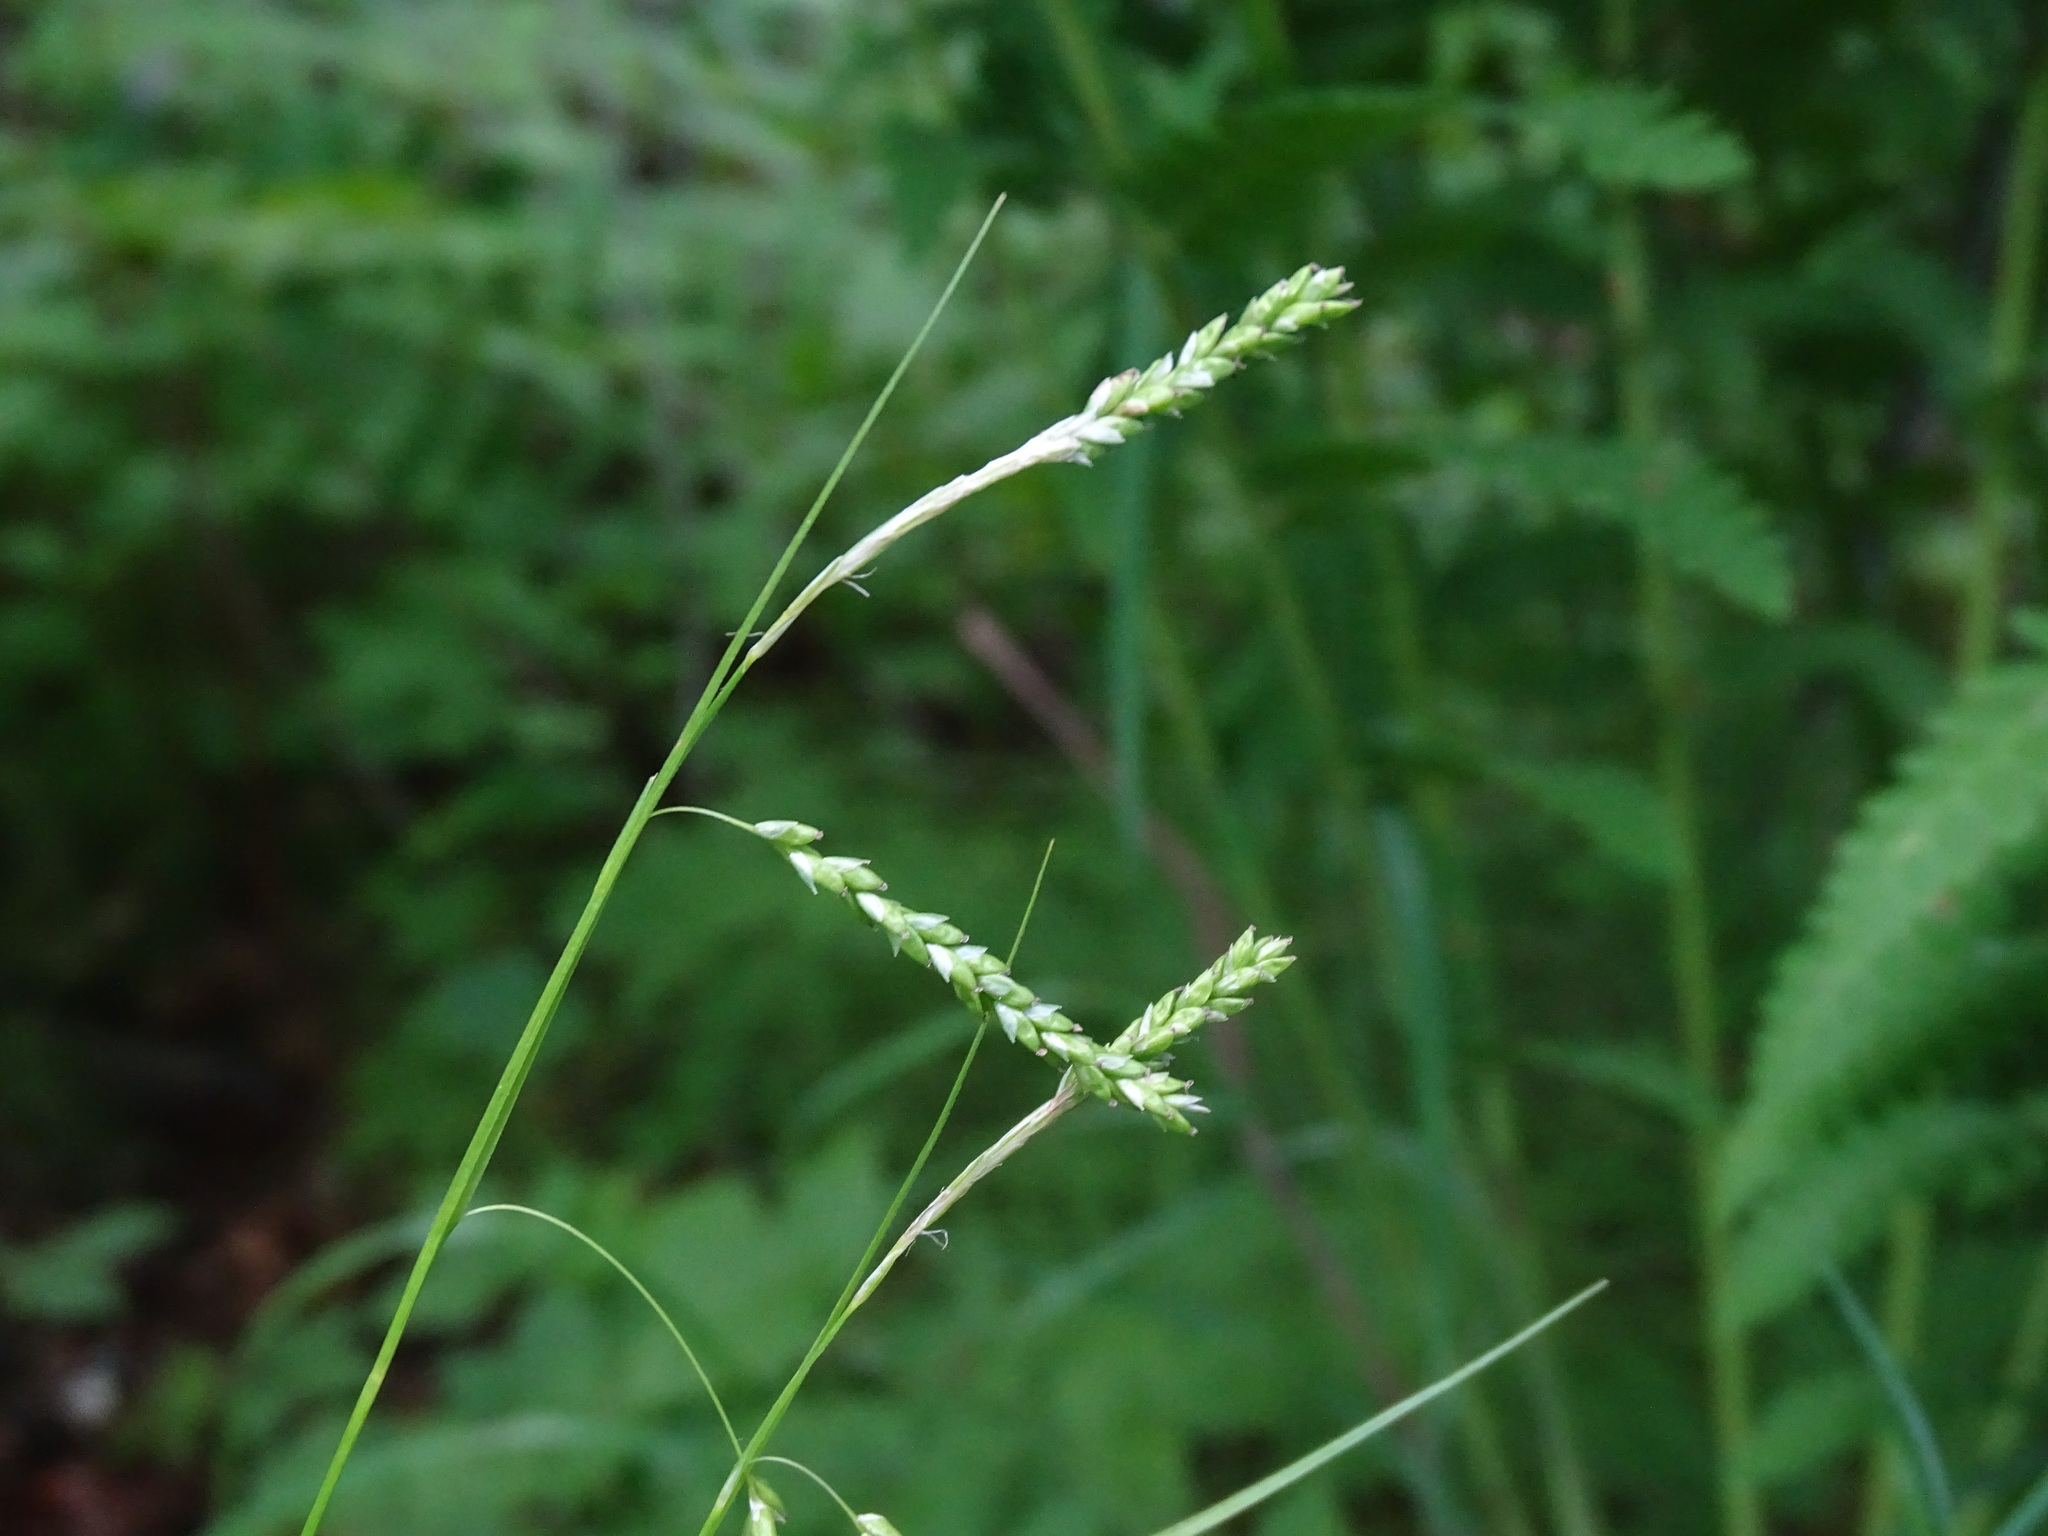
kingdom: Plantae
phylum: Tracheophyta
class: Liliopsida
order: Poales
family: Cyperaceae
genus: Carex
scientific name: Carex gracillima
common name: Graceful sedge
